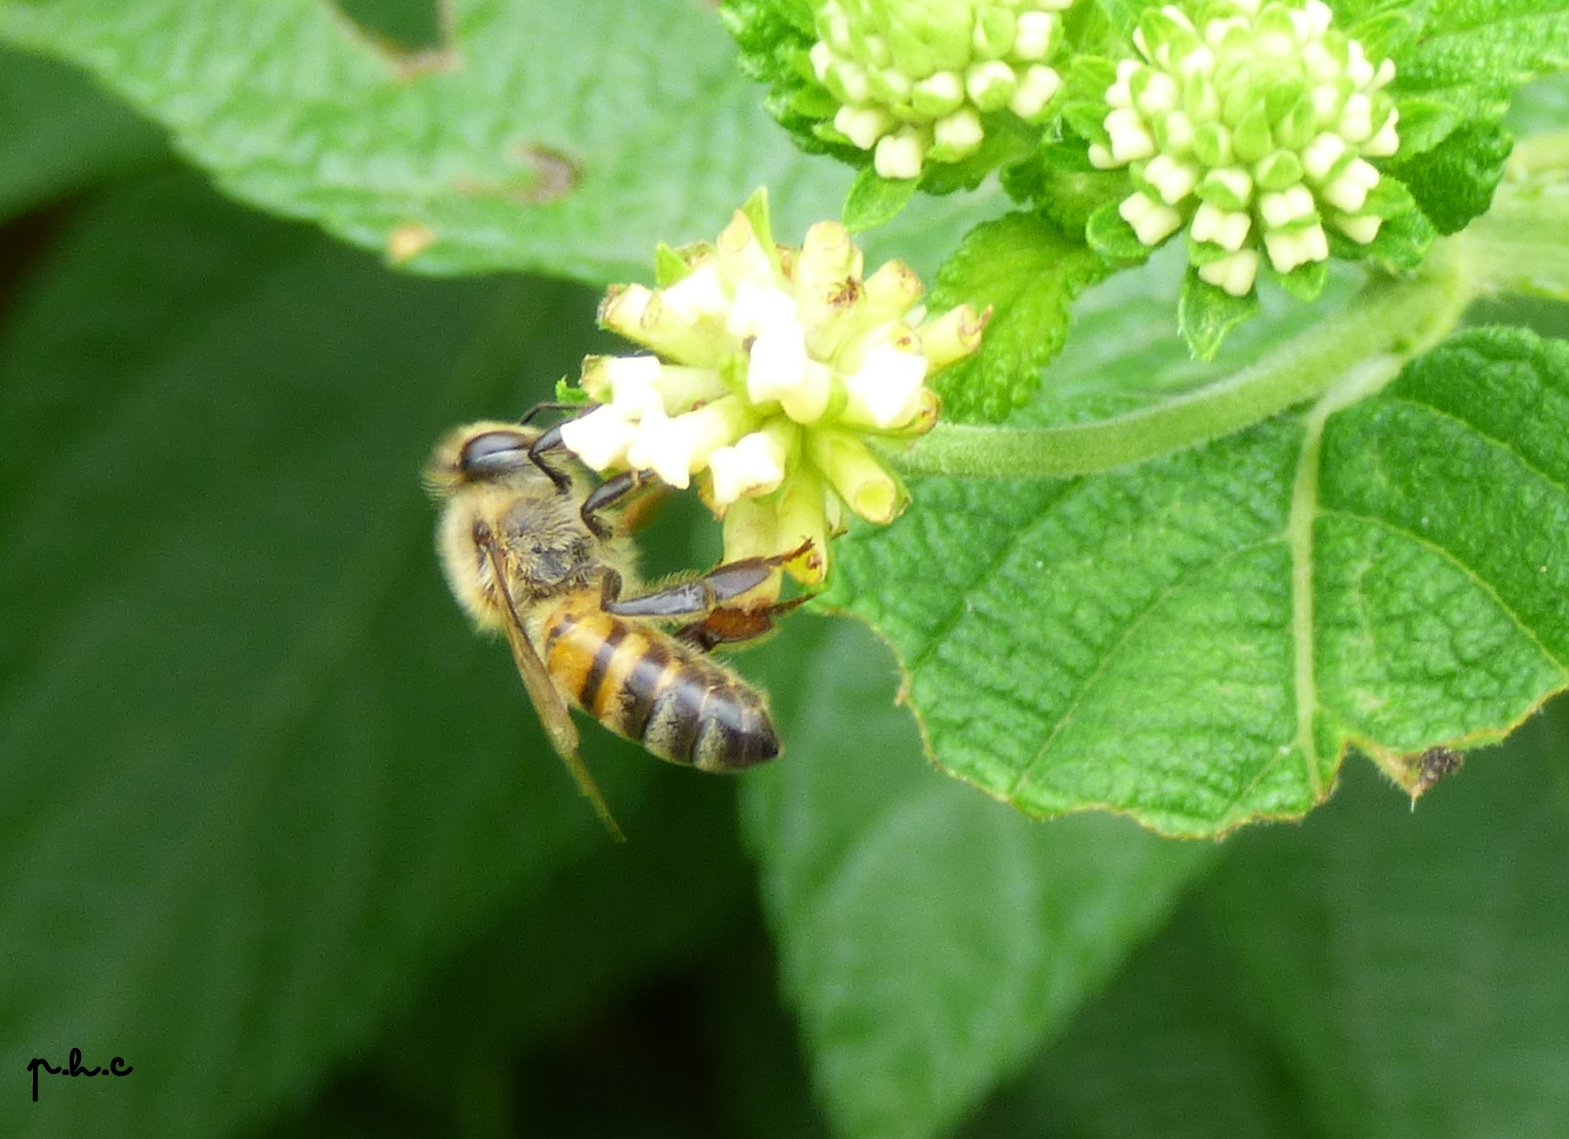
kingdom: Animalia
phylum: Arthropoda
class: Insecta
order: Hymenoptera
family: Apidae
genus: Apis
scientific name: Apis mellifera
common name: Honey bee
